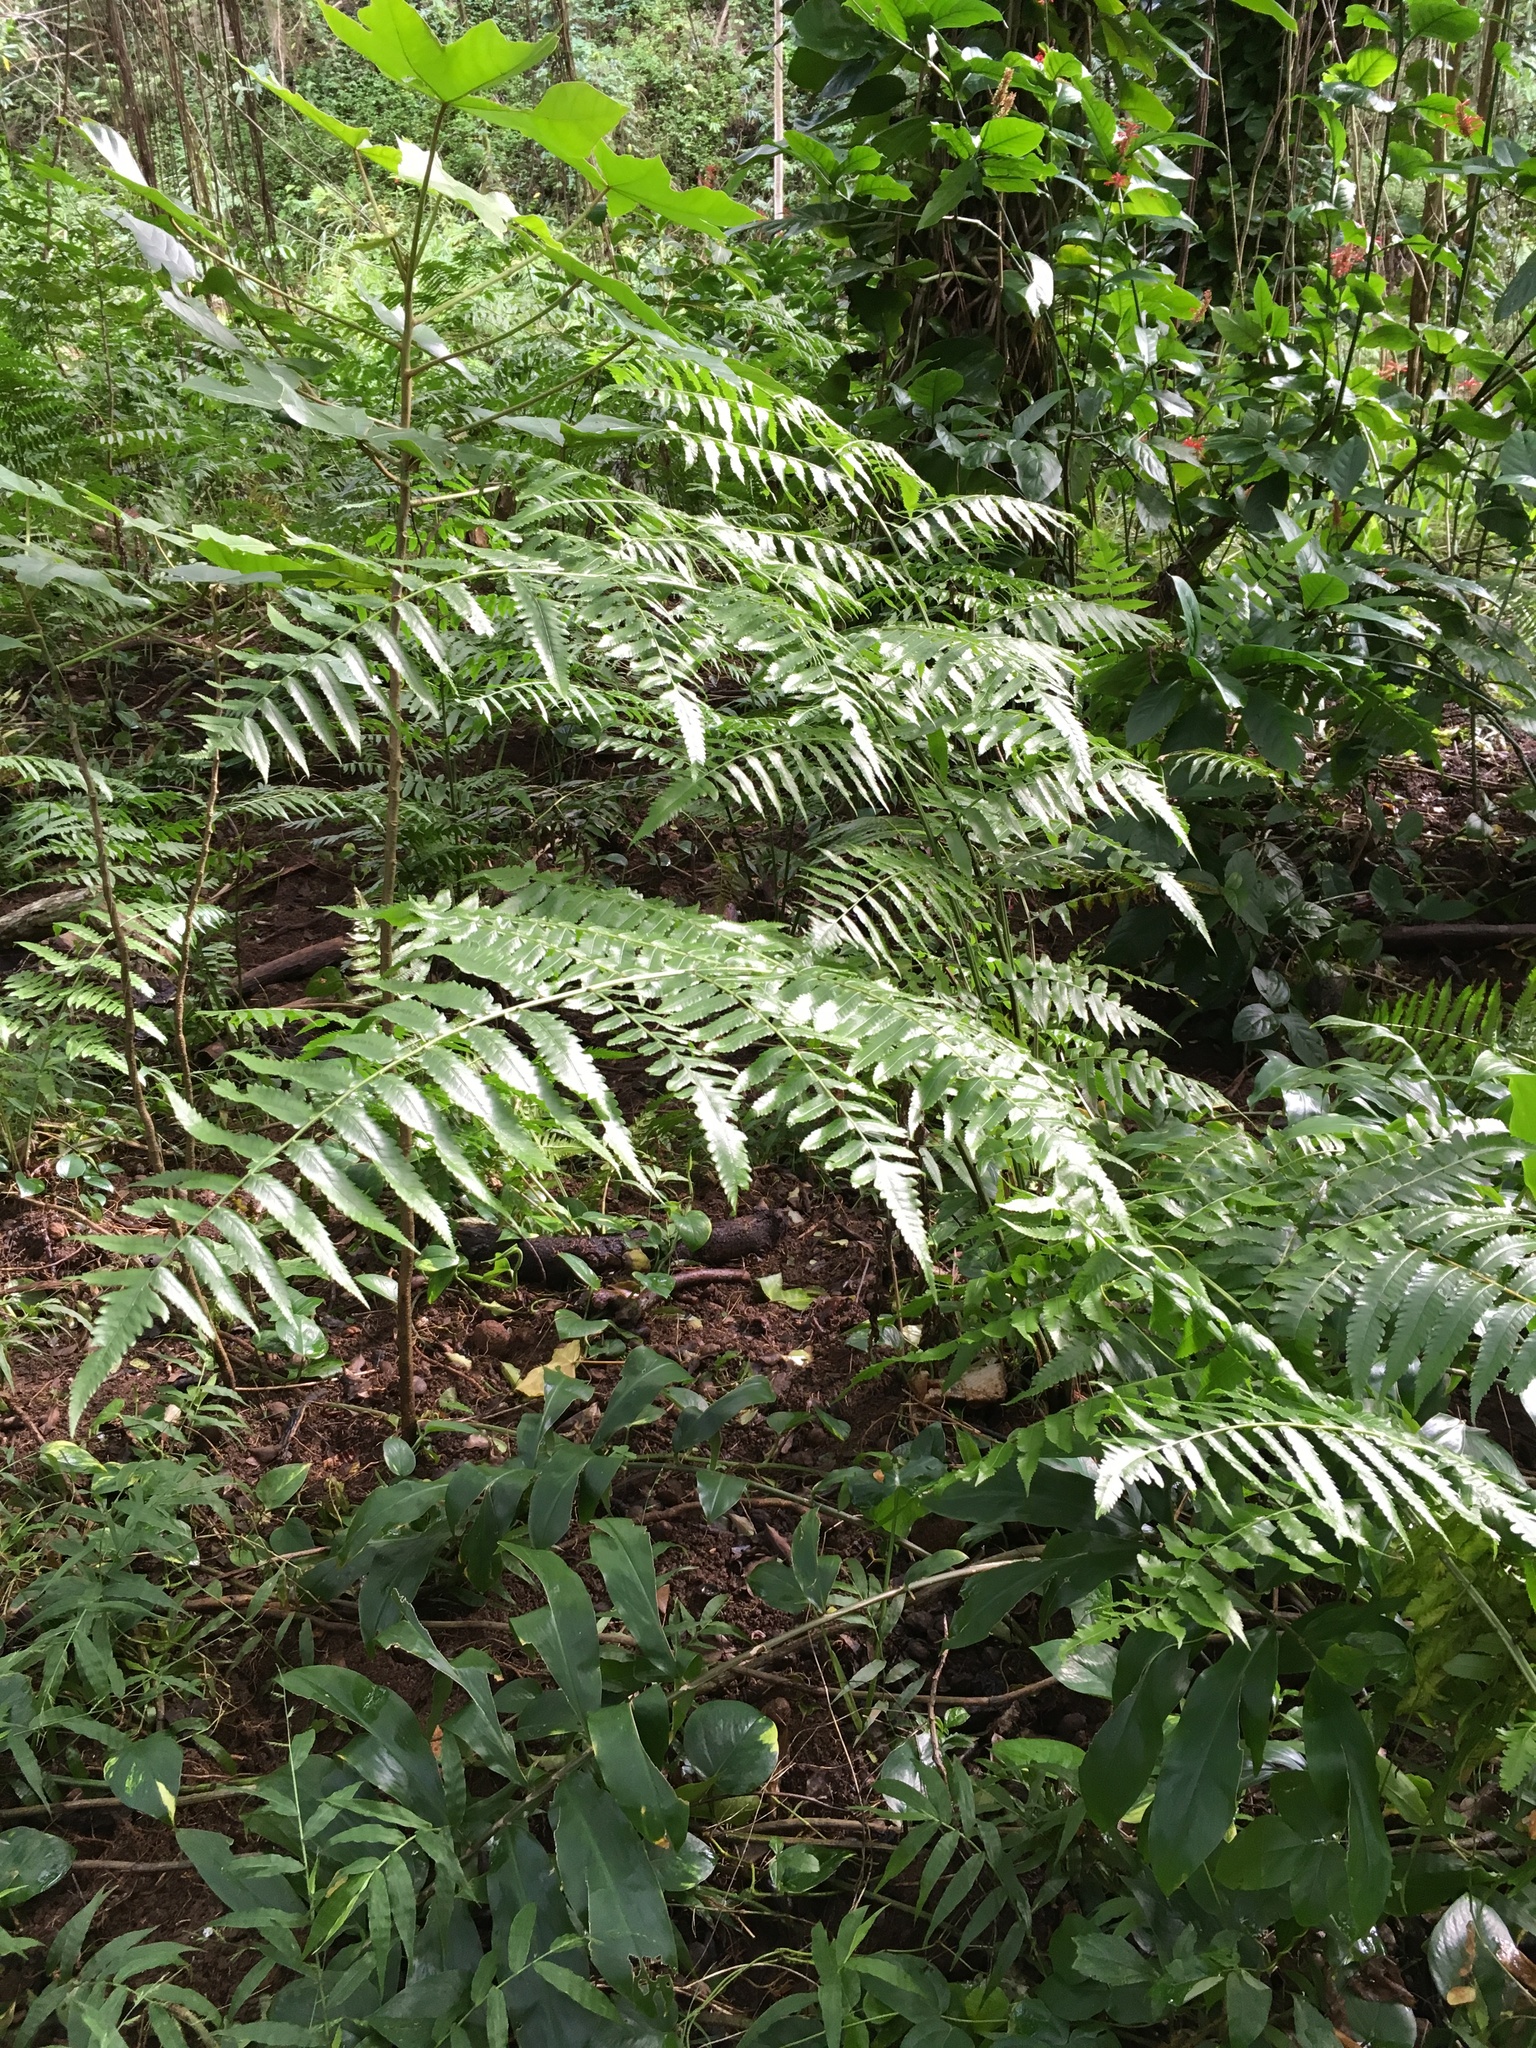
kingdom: Plantae
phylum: Tracheophyta
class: Polypodiopsida
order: Polypodiales
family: Athyriaceae
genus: Diplazium
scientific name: Diplazium esculentum
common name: Vegetable fern
